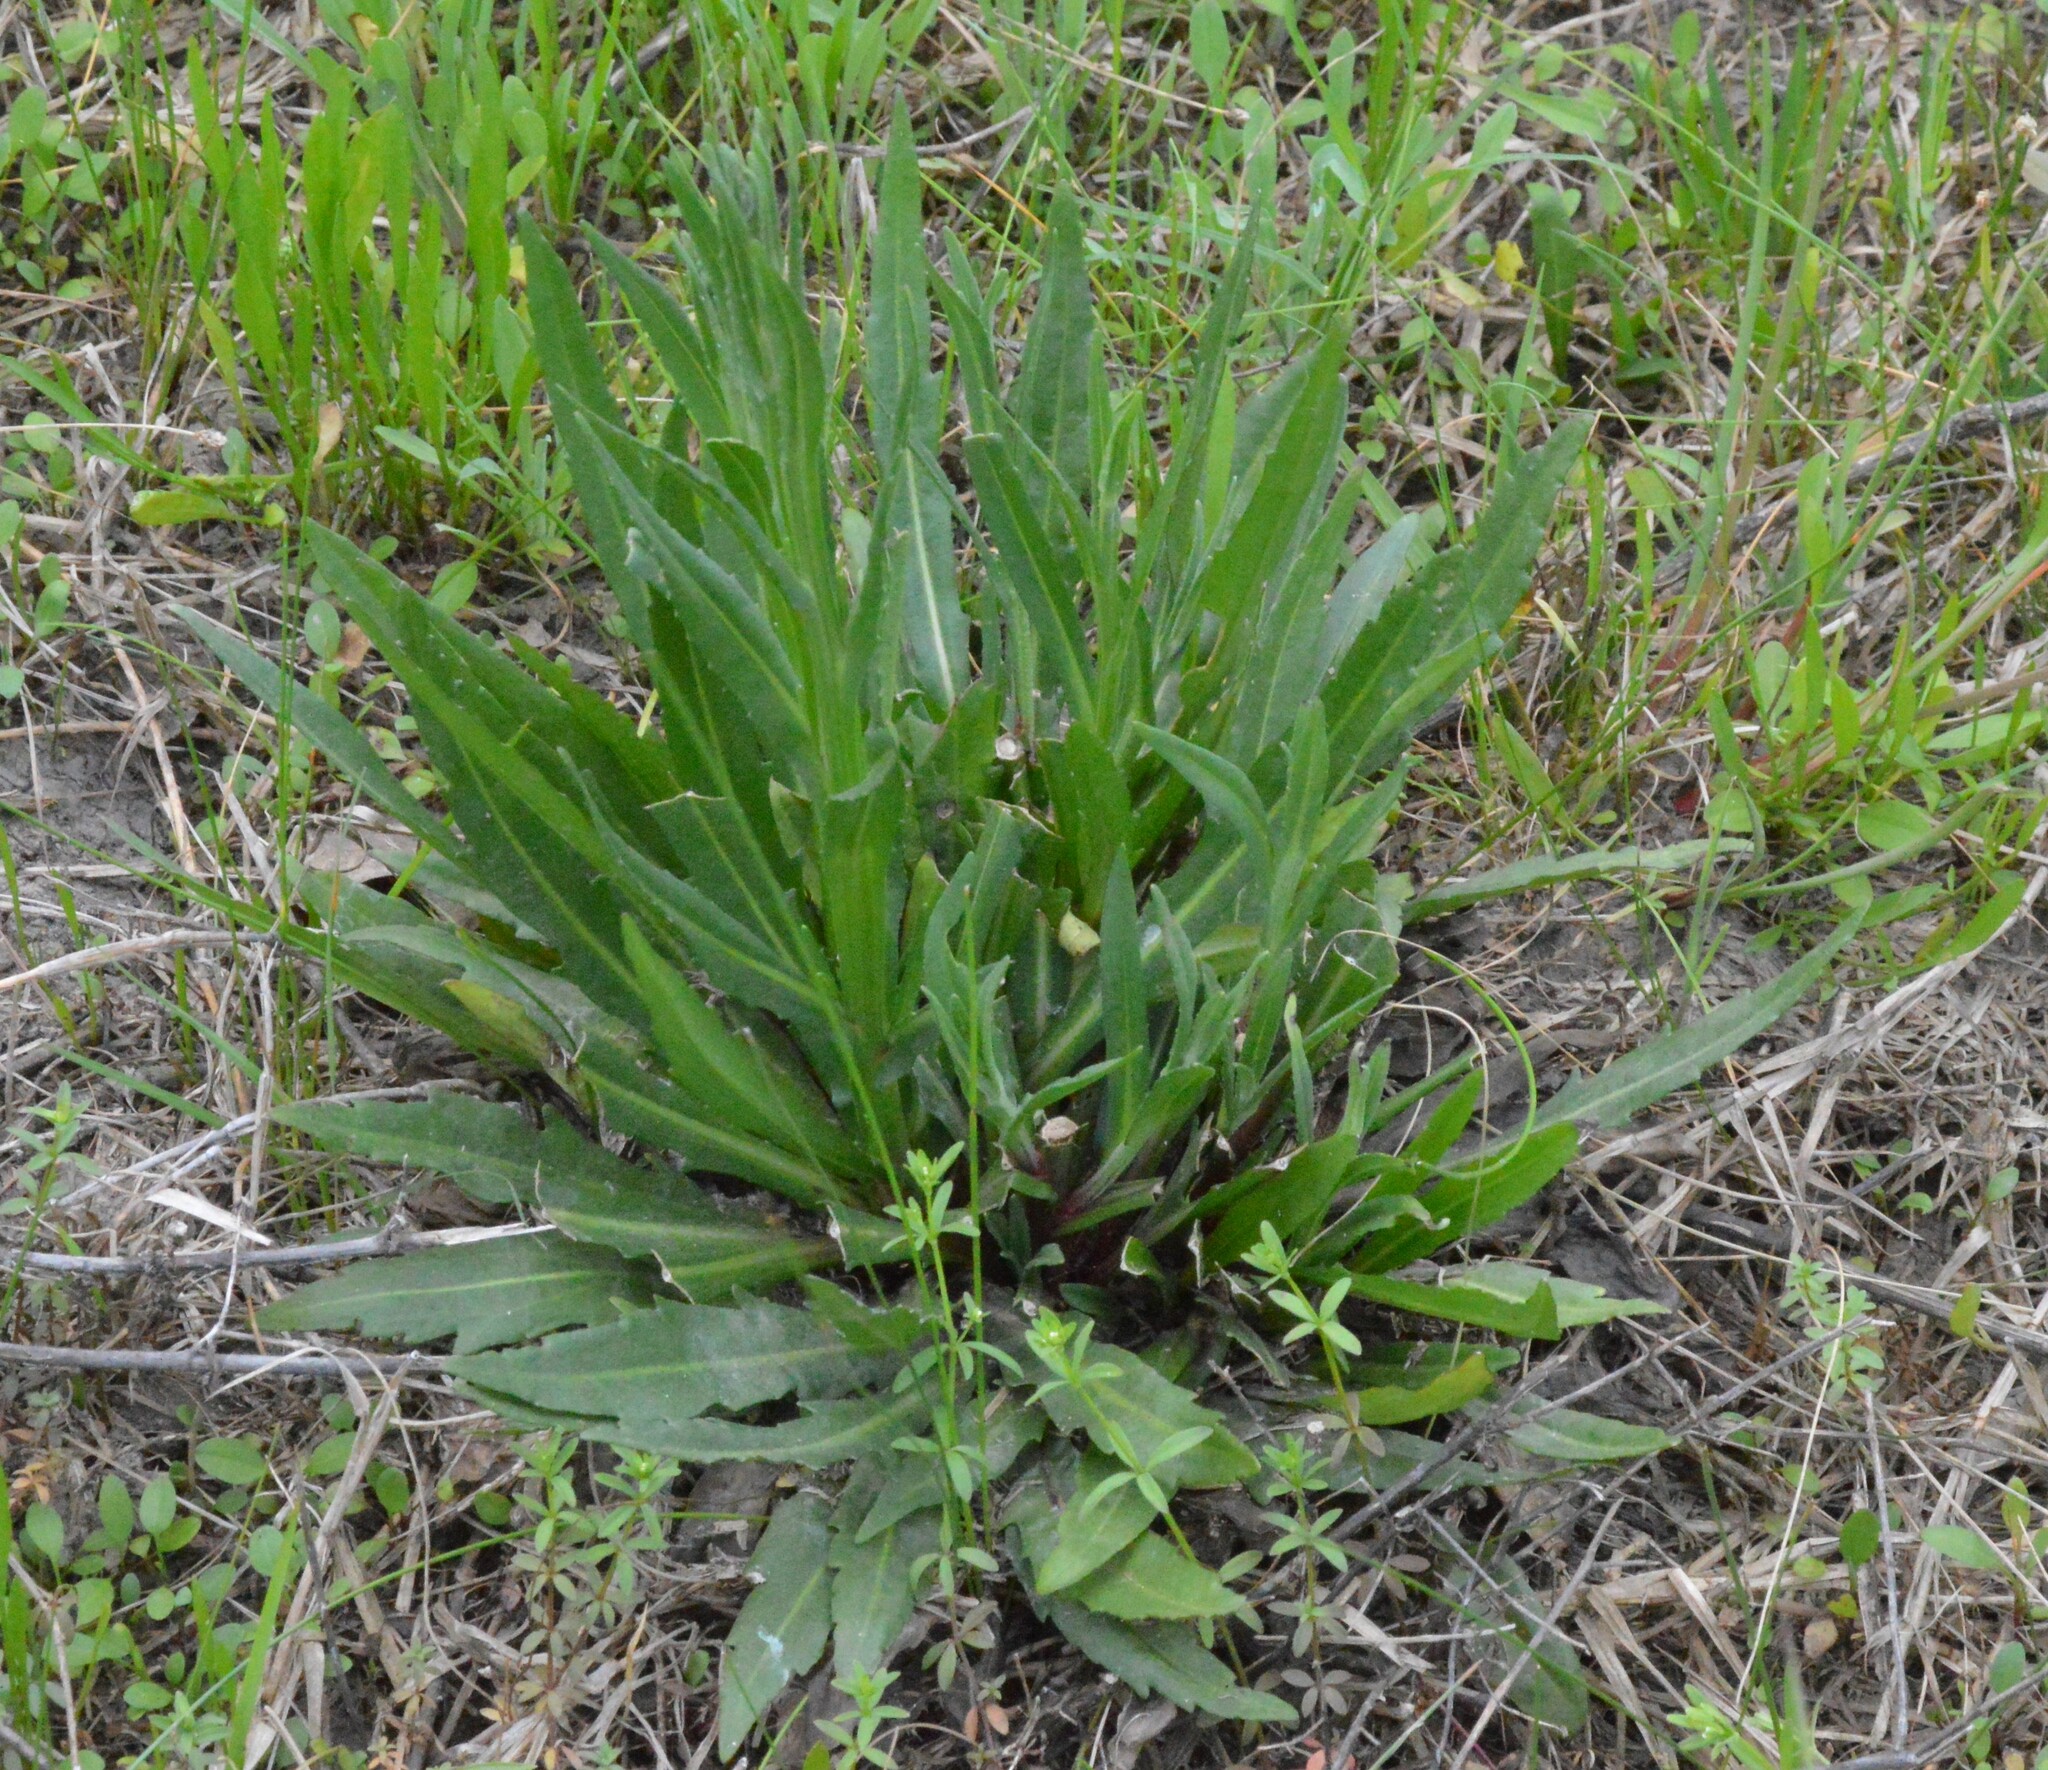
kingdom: Plantae
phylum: Tracheophyta
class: Magnoliopsida
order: Asterales
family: Asteraceae
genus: Helenium
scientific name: Helenium flexuosum
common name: Naked-flowered sneezeweed
